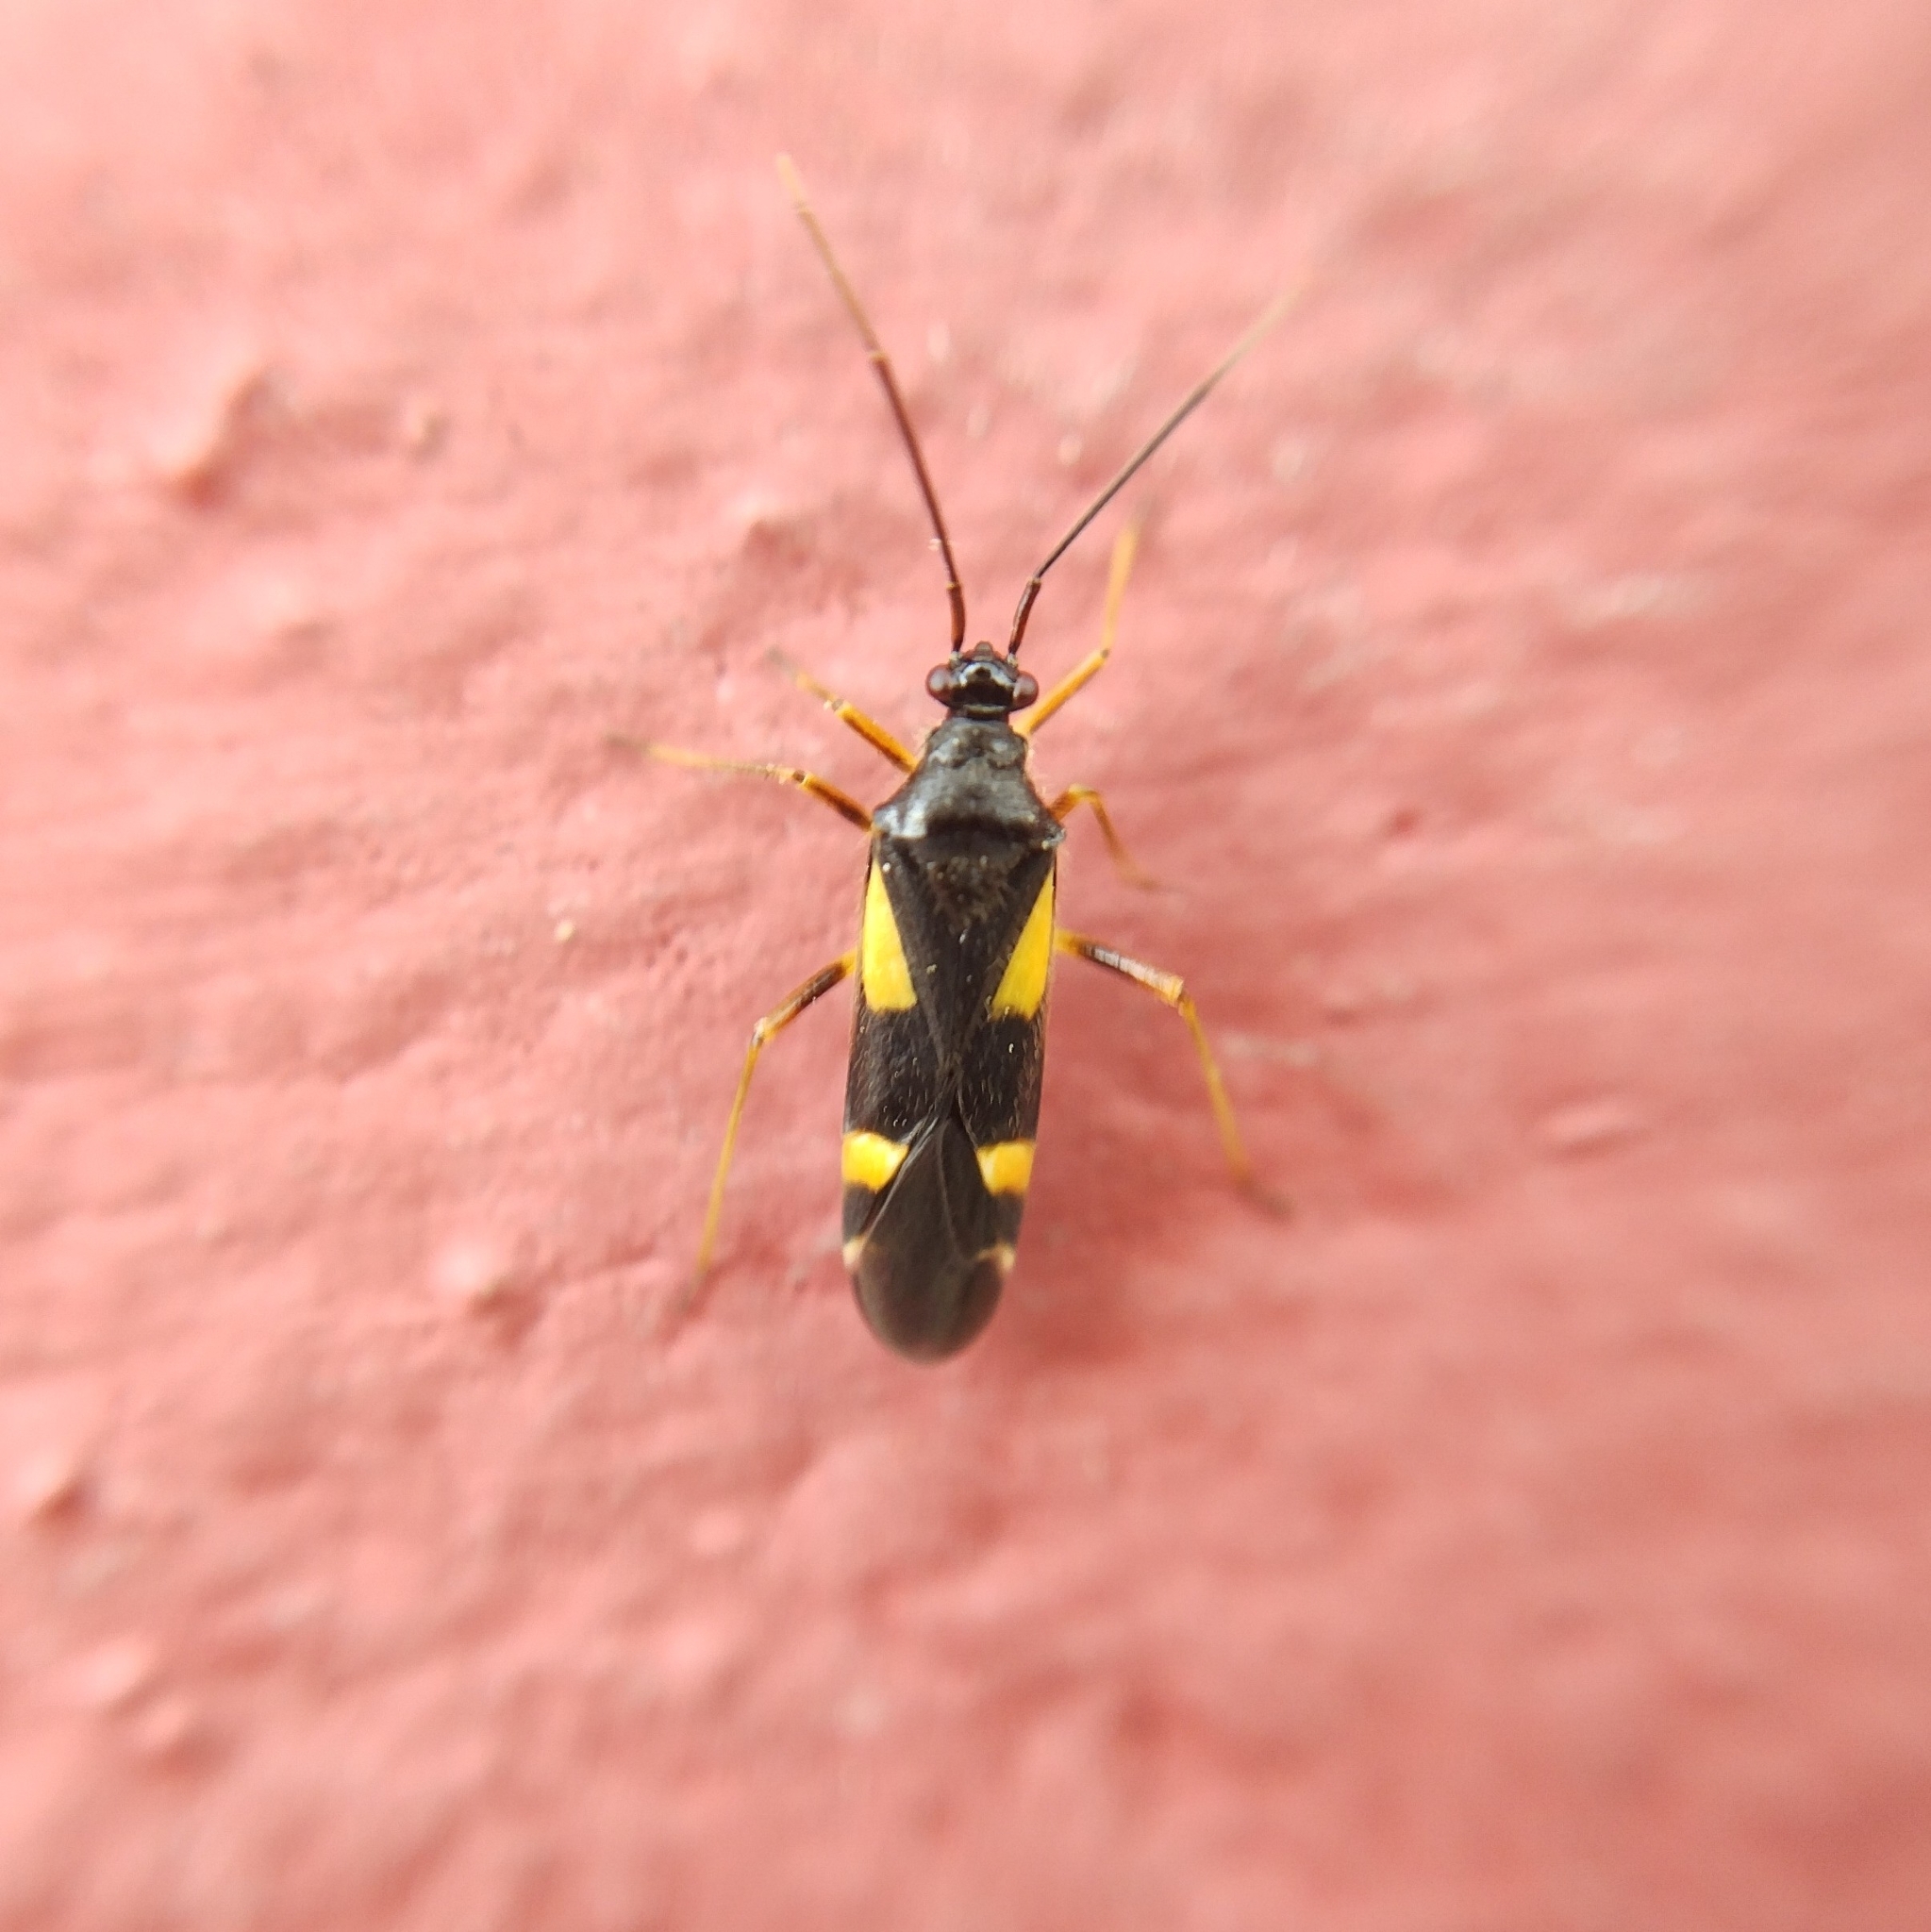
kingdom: Animalia
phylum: Arthropoda
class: Insecta
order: Hemiptera
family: Miridae
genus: Dryophilocoris
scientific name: Dryophilocoris flavoquadrimaculatus
